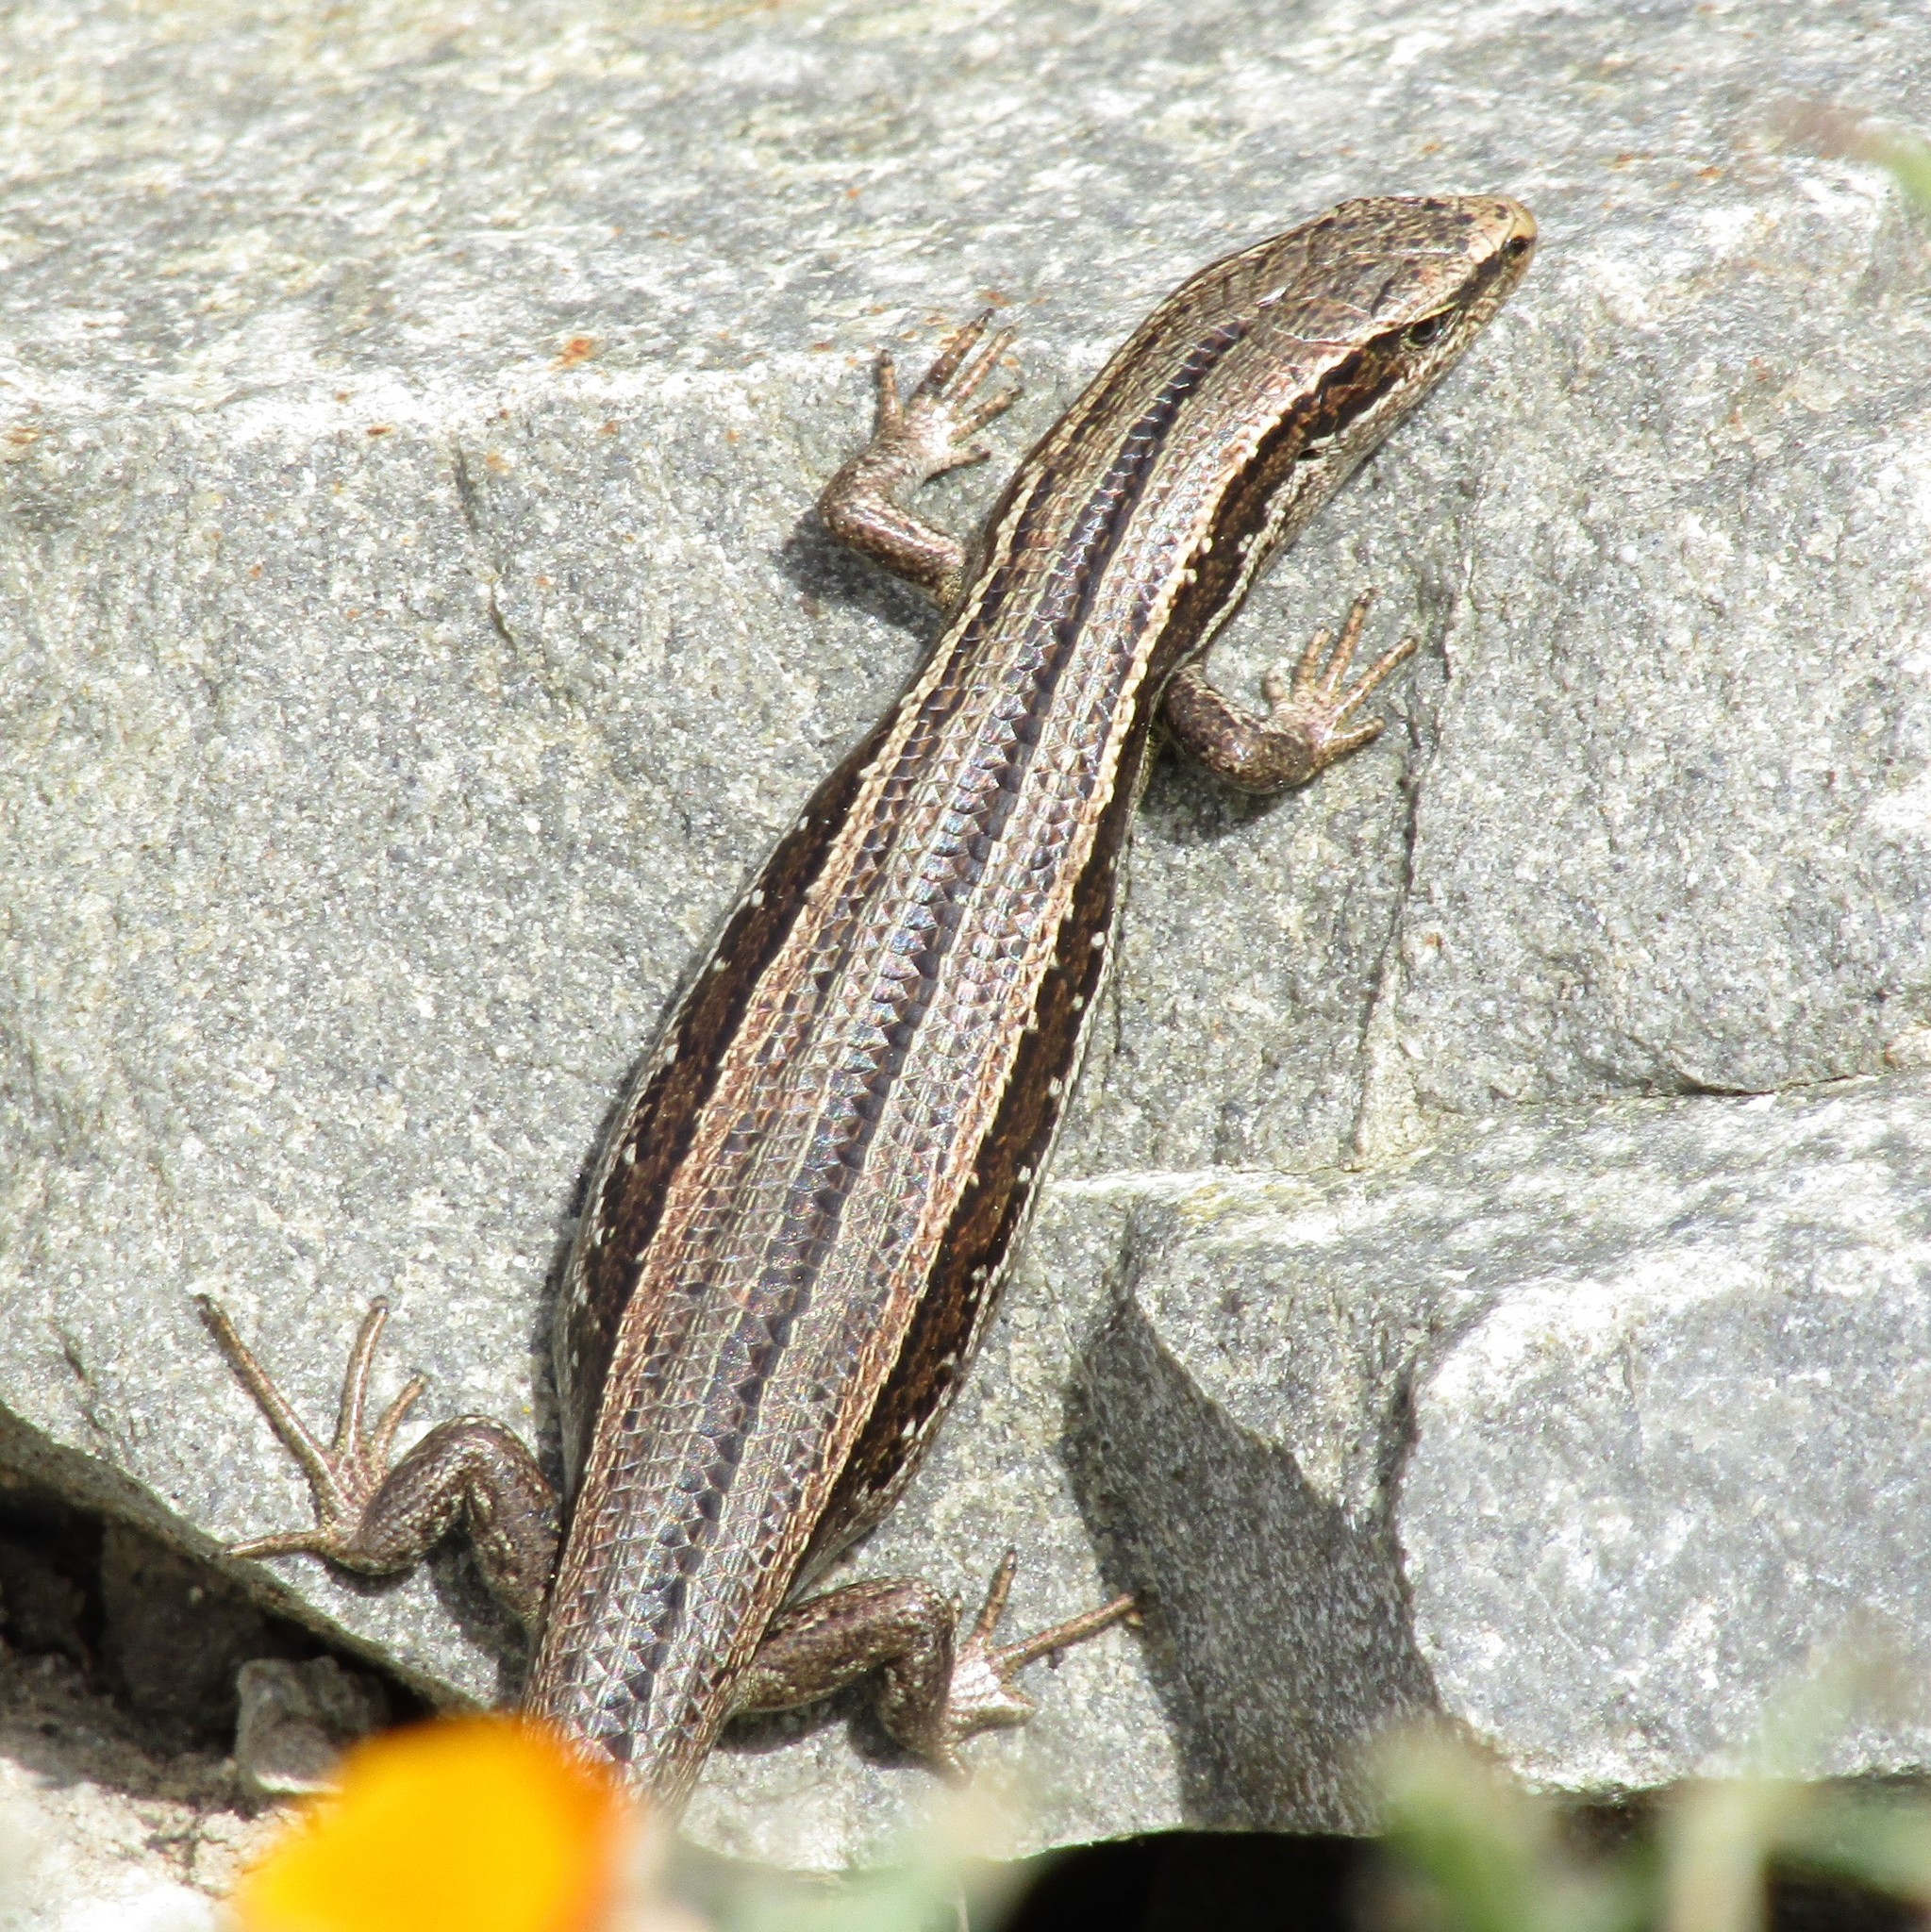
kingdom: Animalia
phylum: Chordata
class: Squamata
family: Scincidae
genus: Oligosoma
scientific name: Oligosoma polychroma
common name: Common new zealand skink
